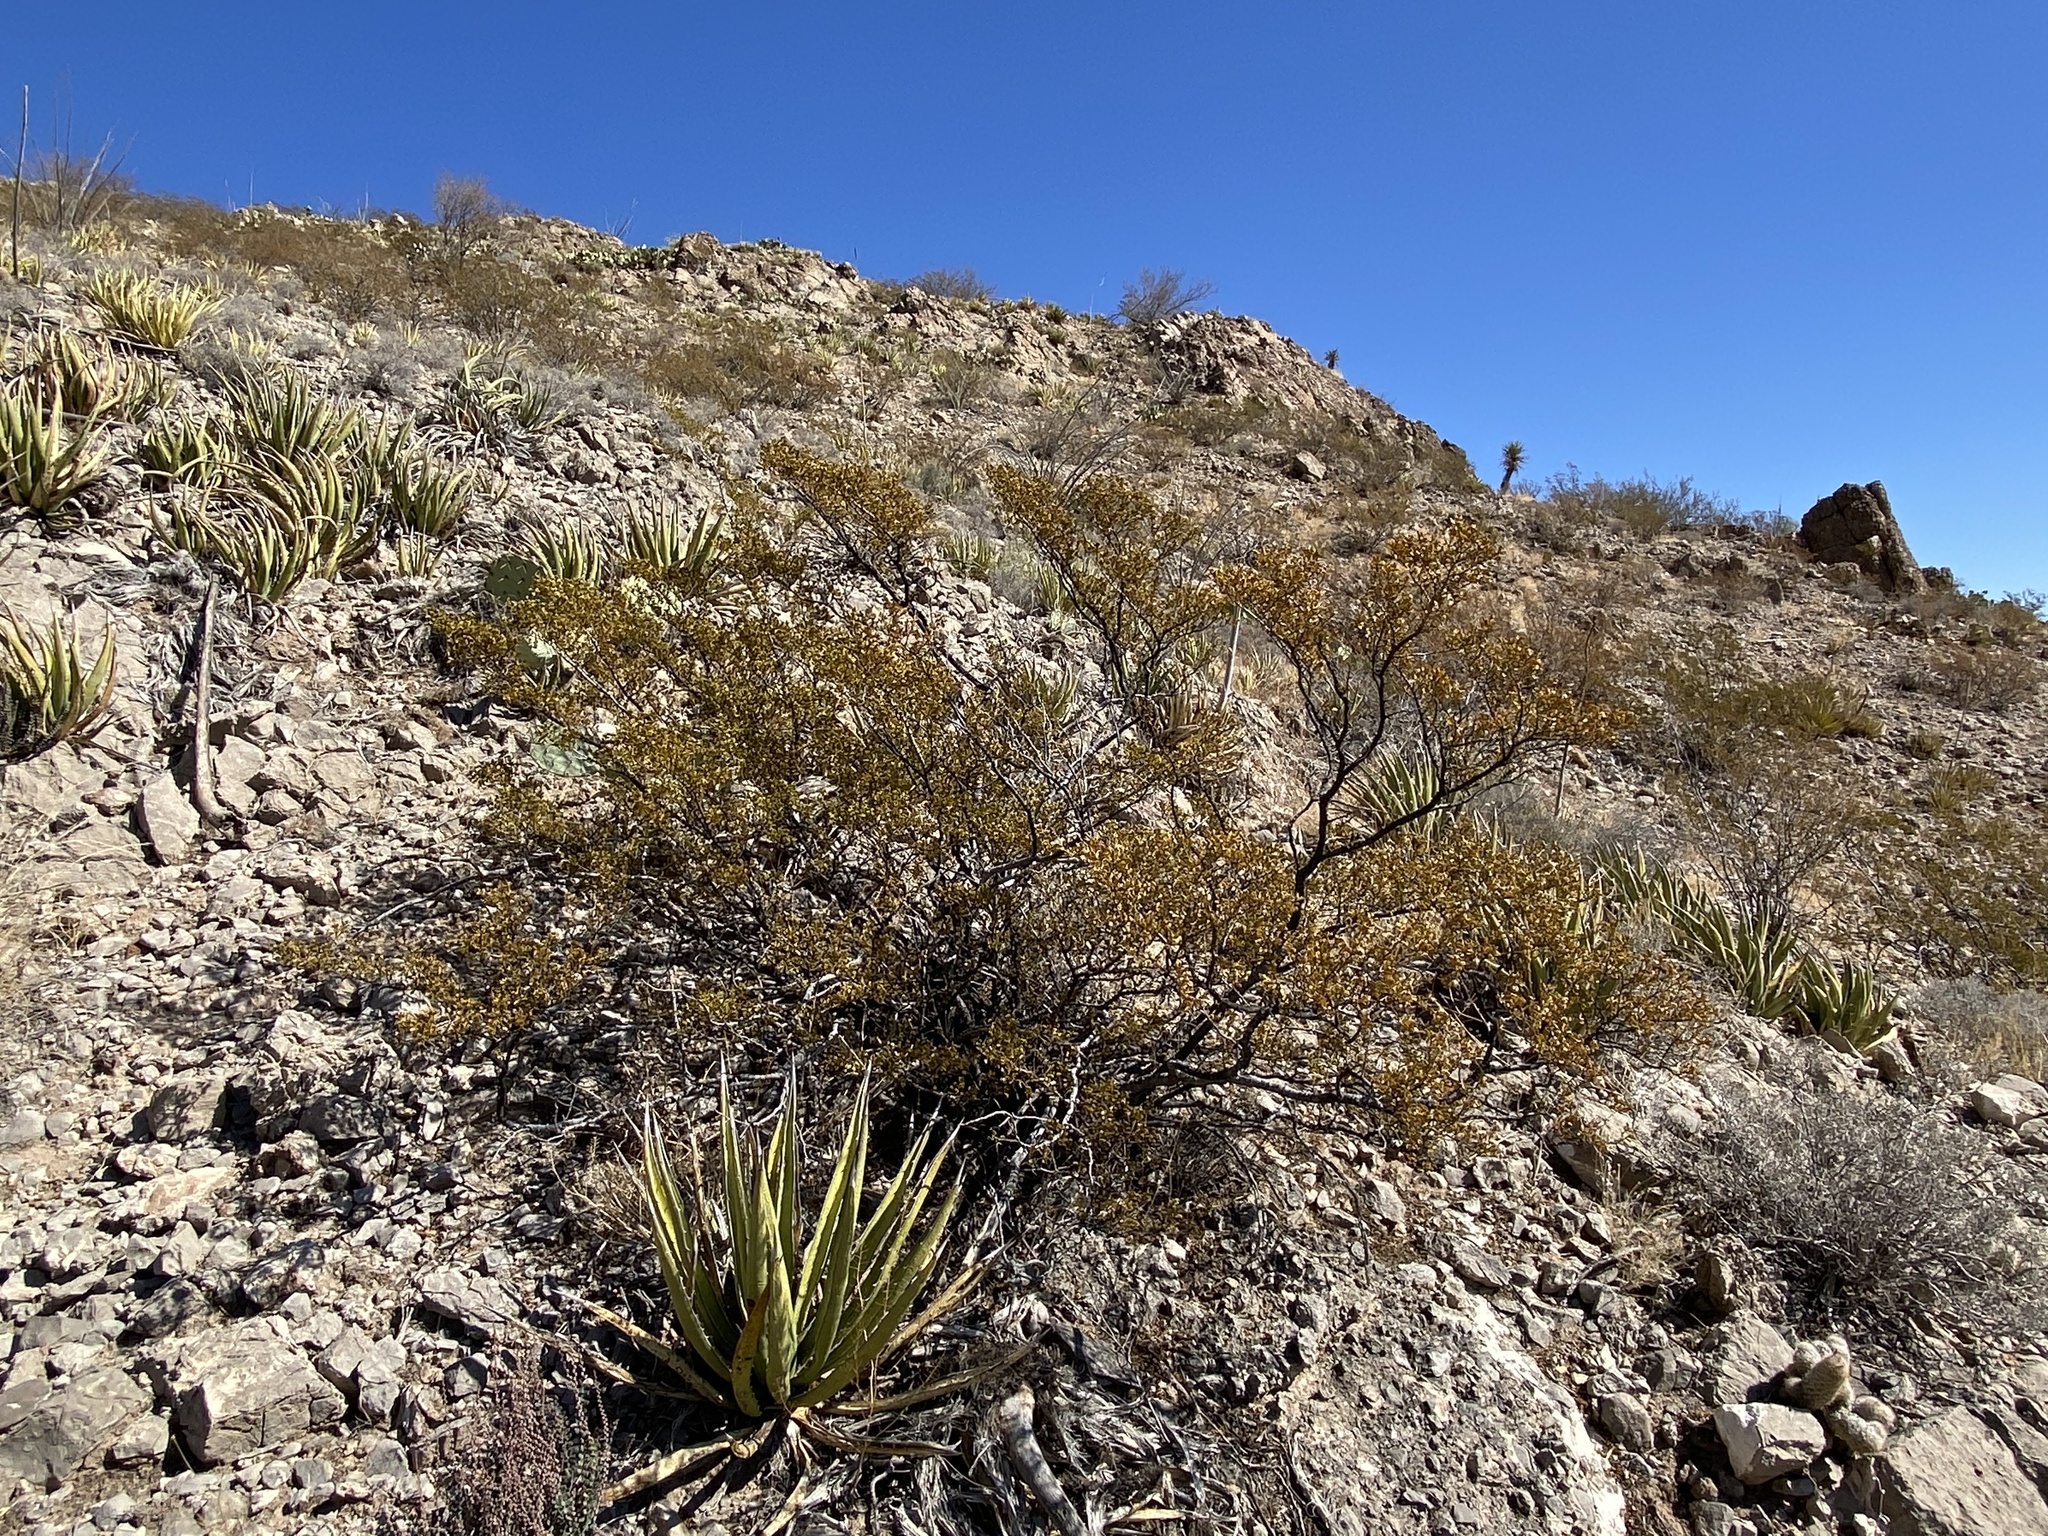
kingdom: Plantae
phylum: Tracheophyta
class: Magnoliopsida
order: Zygophyllales
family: Zygophyllaceae
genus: Larrea
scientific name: Larrea tridentata
